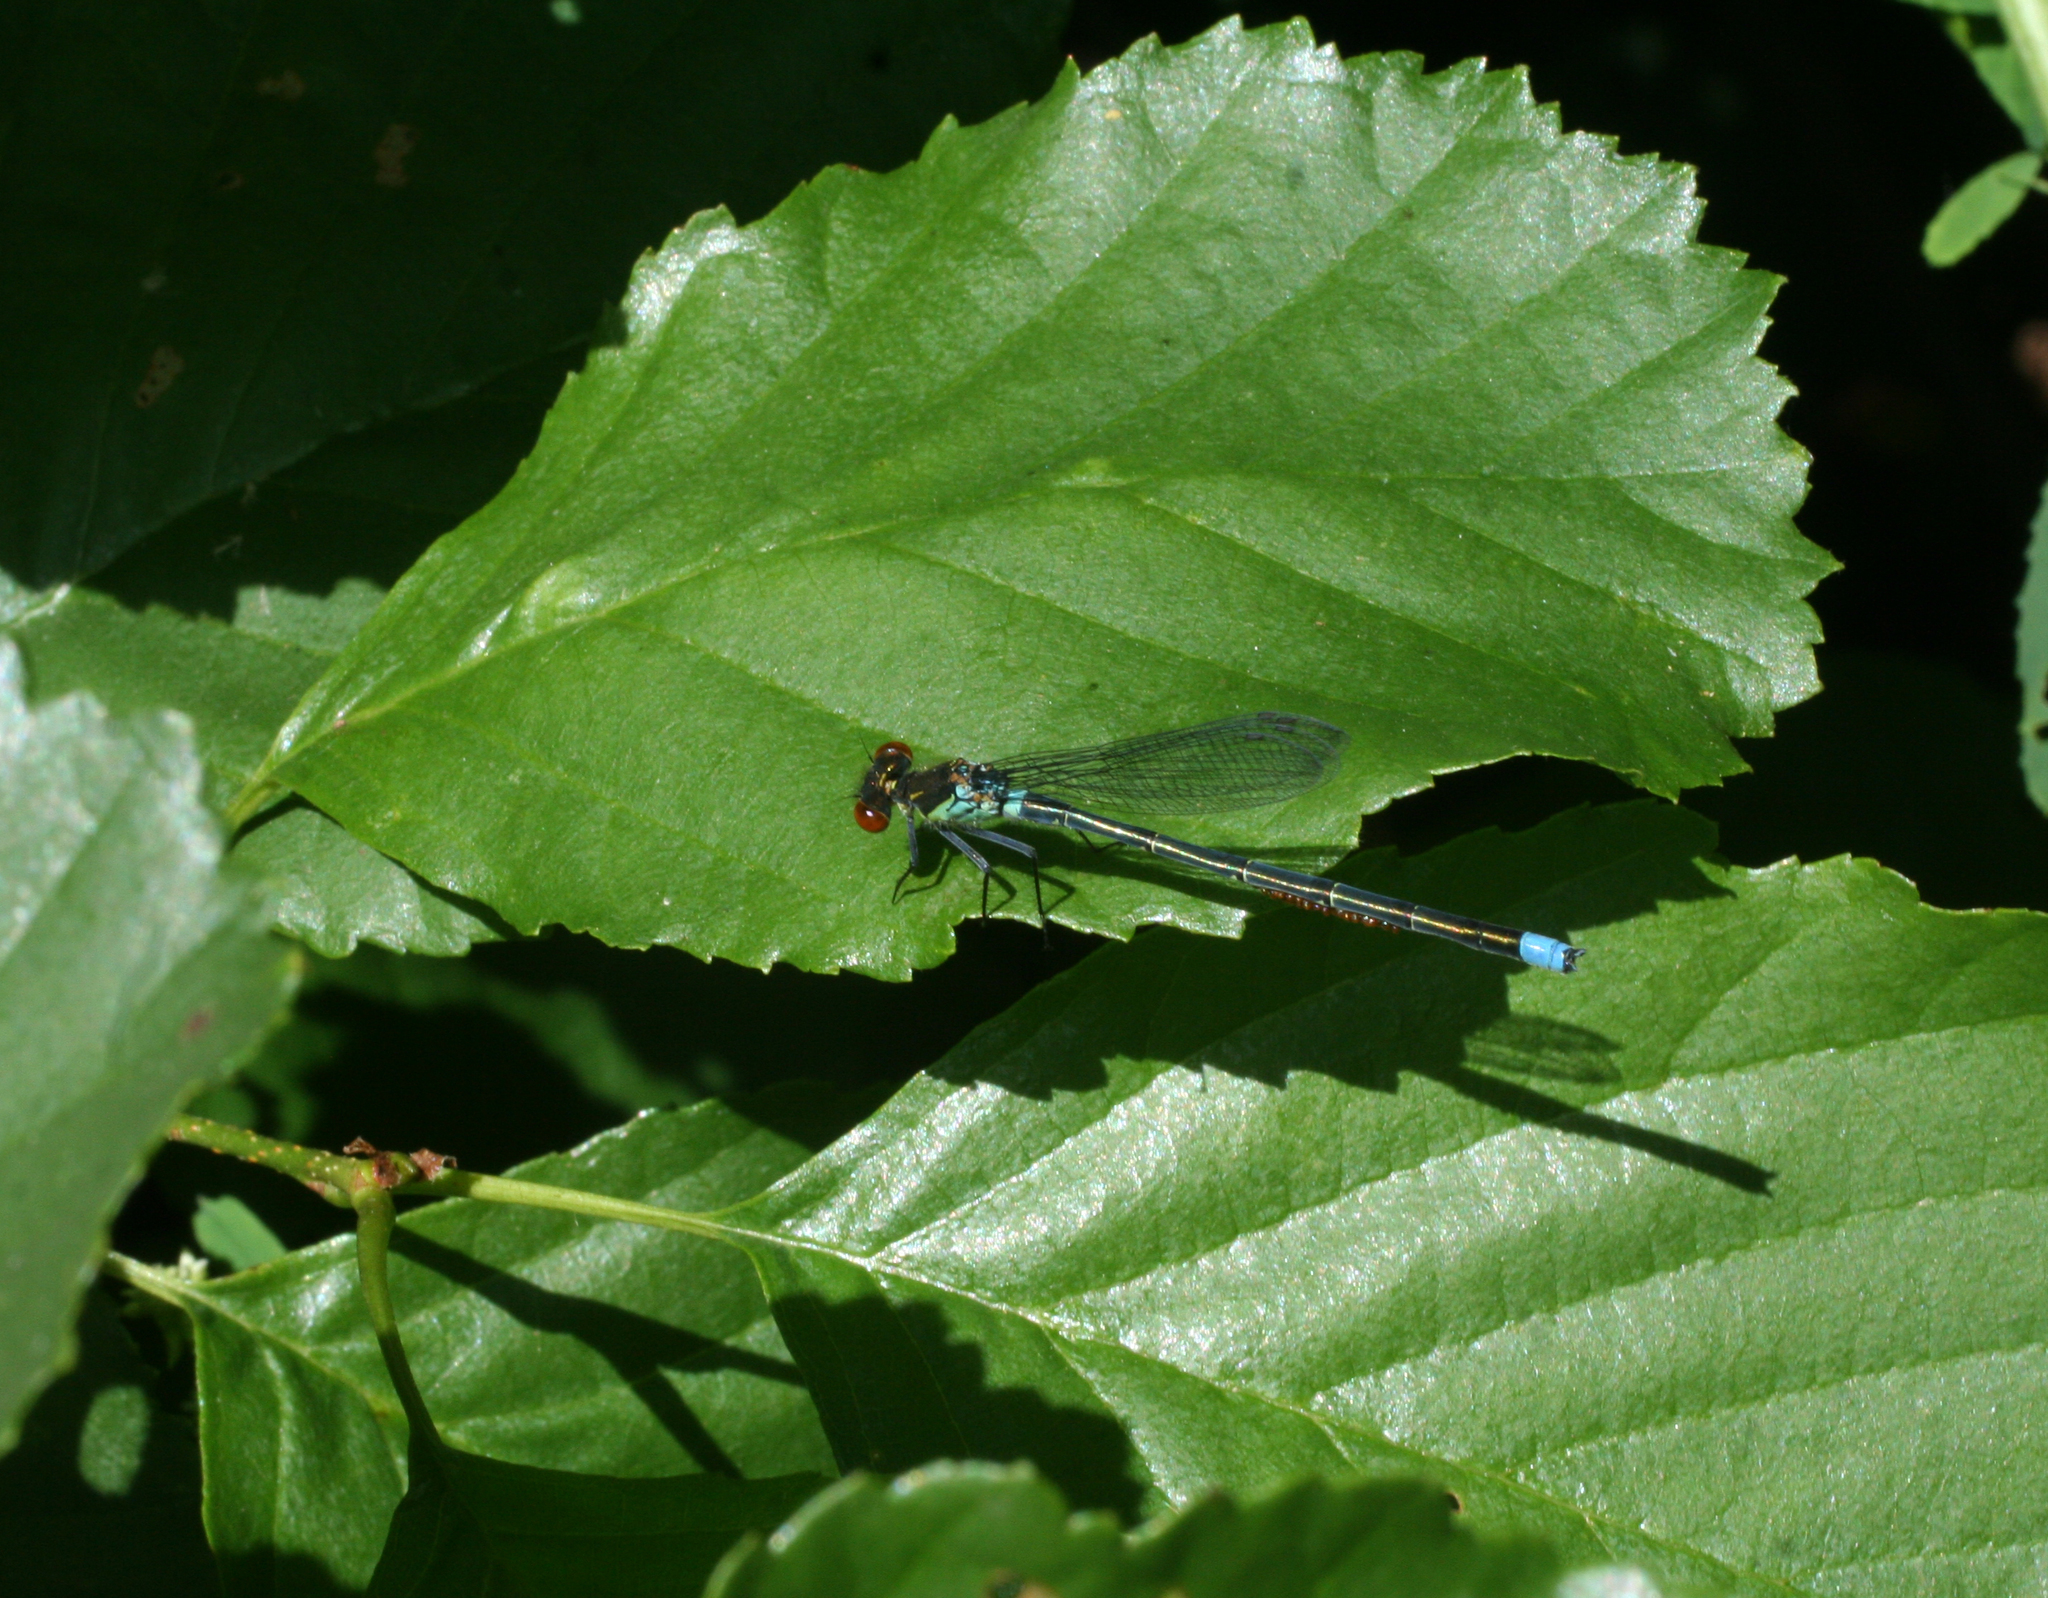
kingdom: Plantae
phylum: Tracheophyta
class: Magnoliopsida
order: Fagales
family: Betulaceae
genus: Alnus
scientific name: Alnus glutinosa
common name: Black alder
